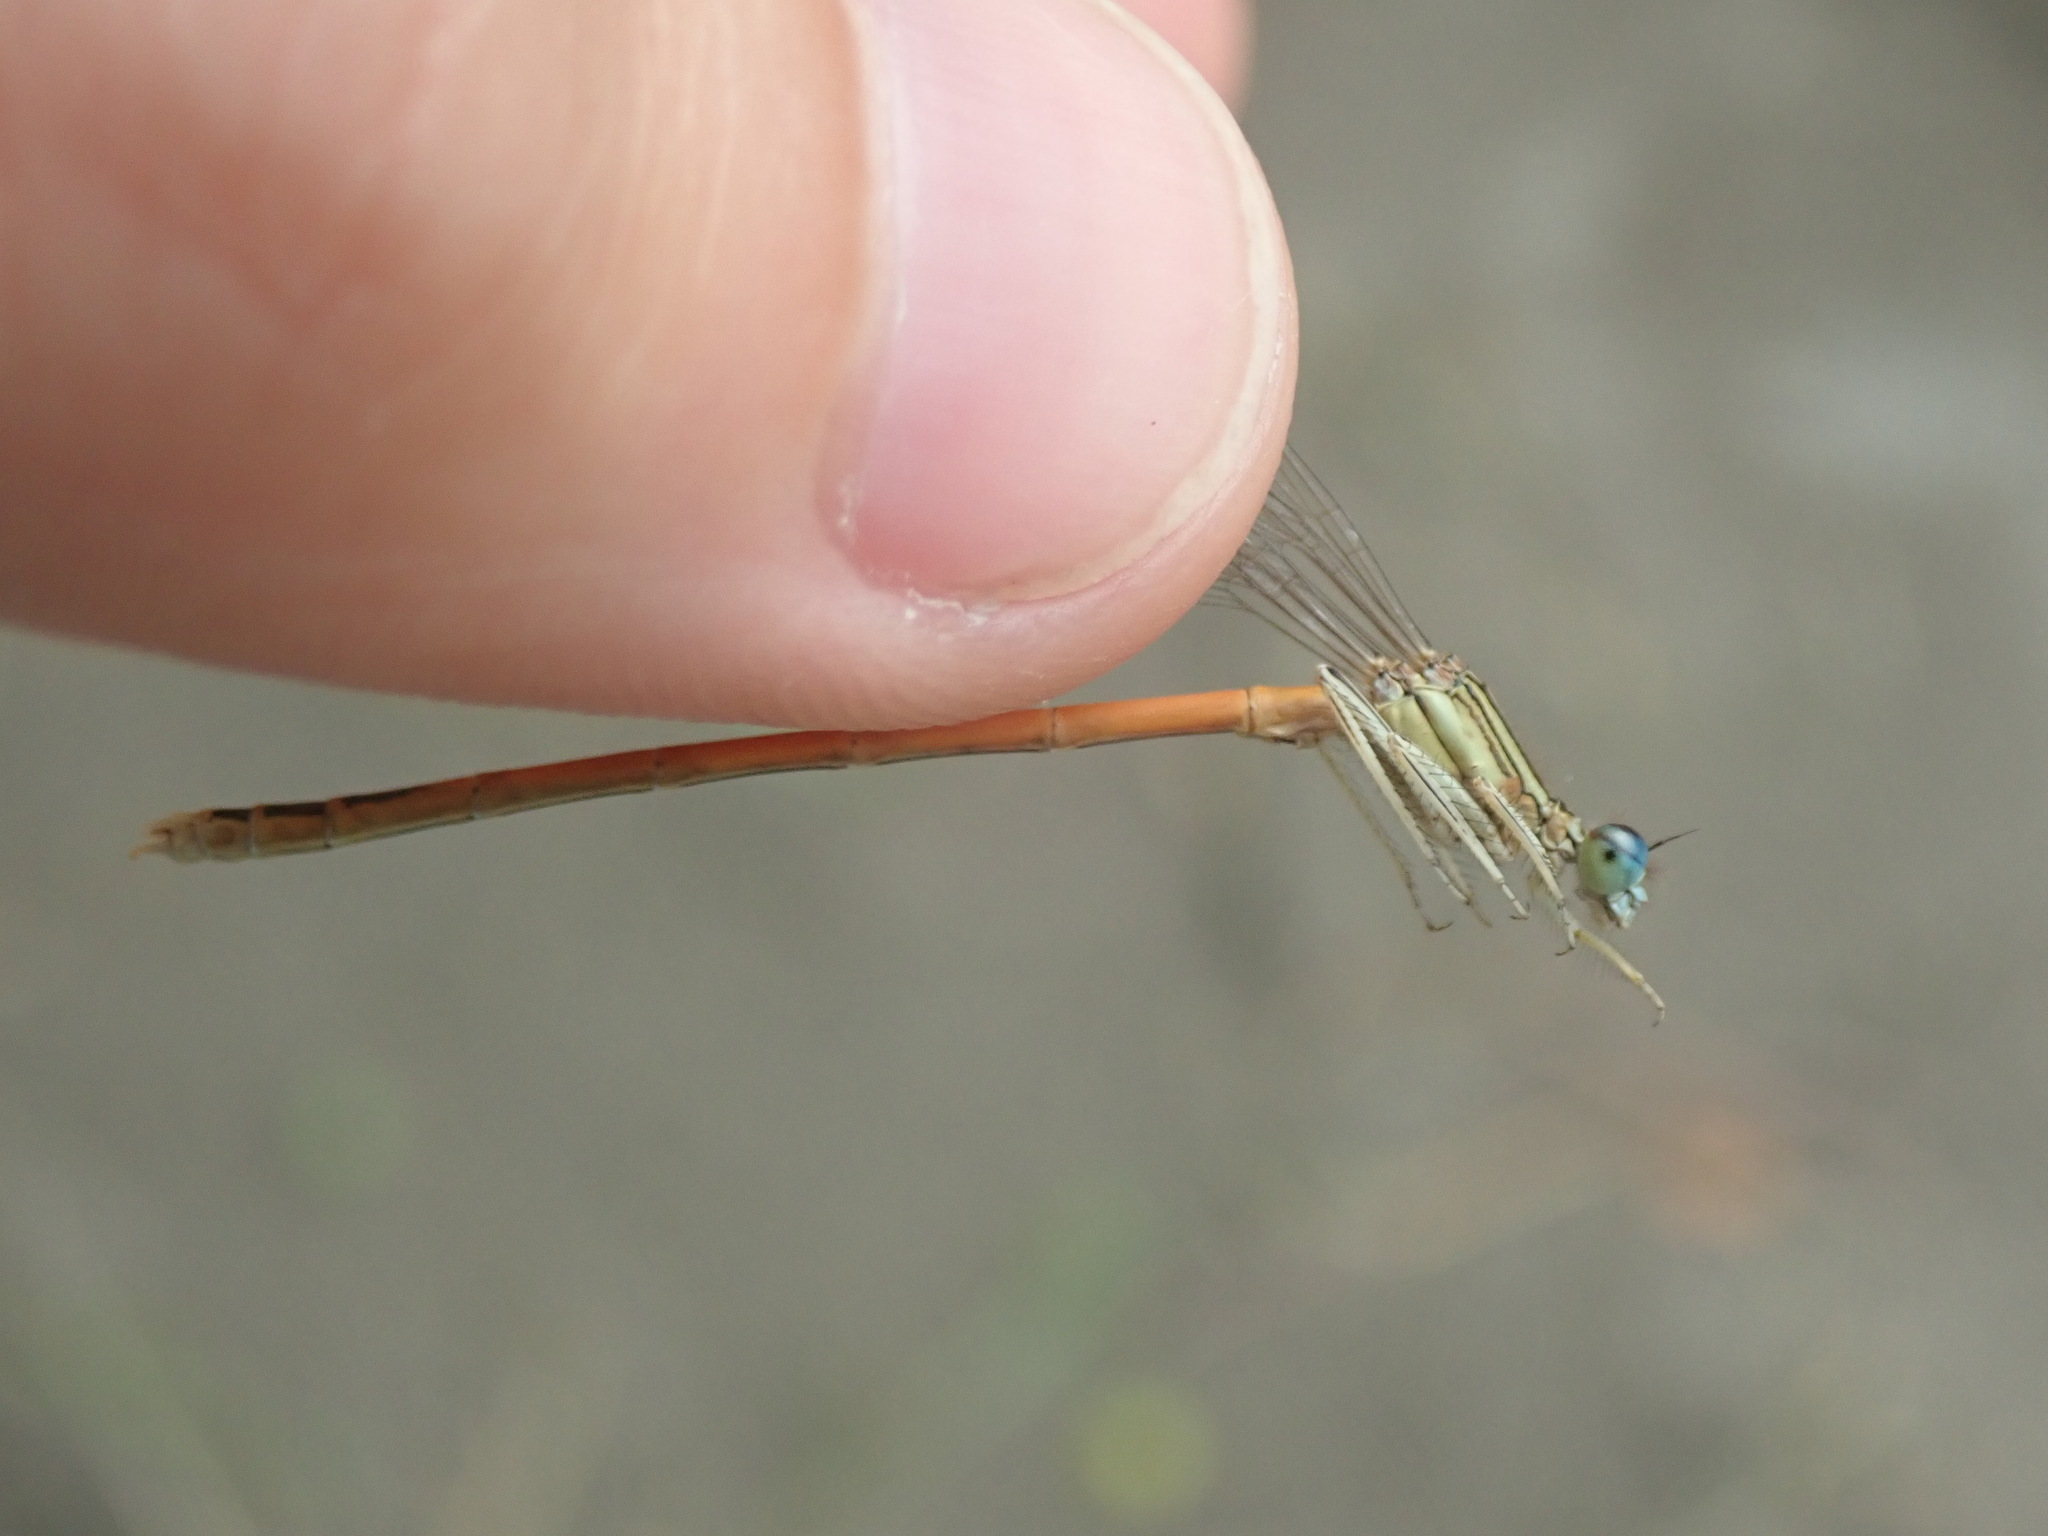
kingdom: Animalia
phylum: Arthropoda
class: Insecta
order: Odonata
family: Platycnemididae
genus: Platycnemis
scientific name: Platycnemis acutipennis
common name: Orange featherleg
